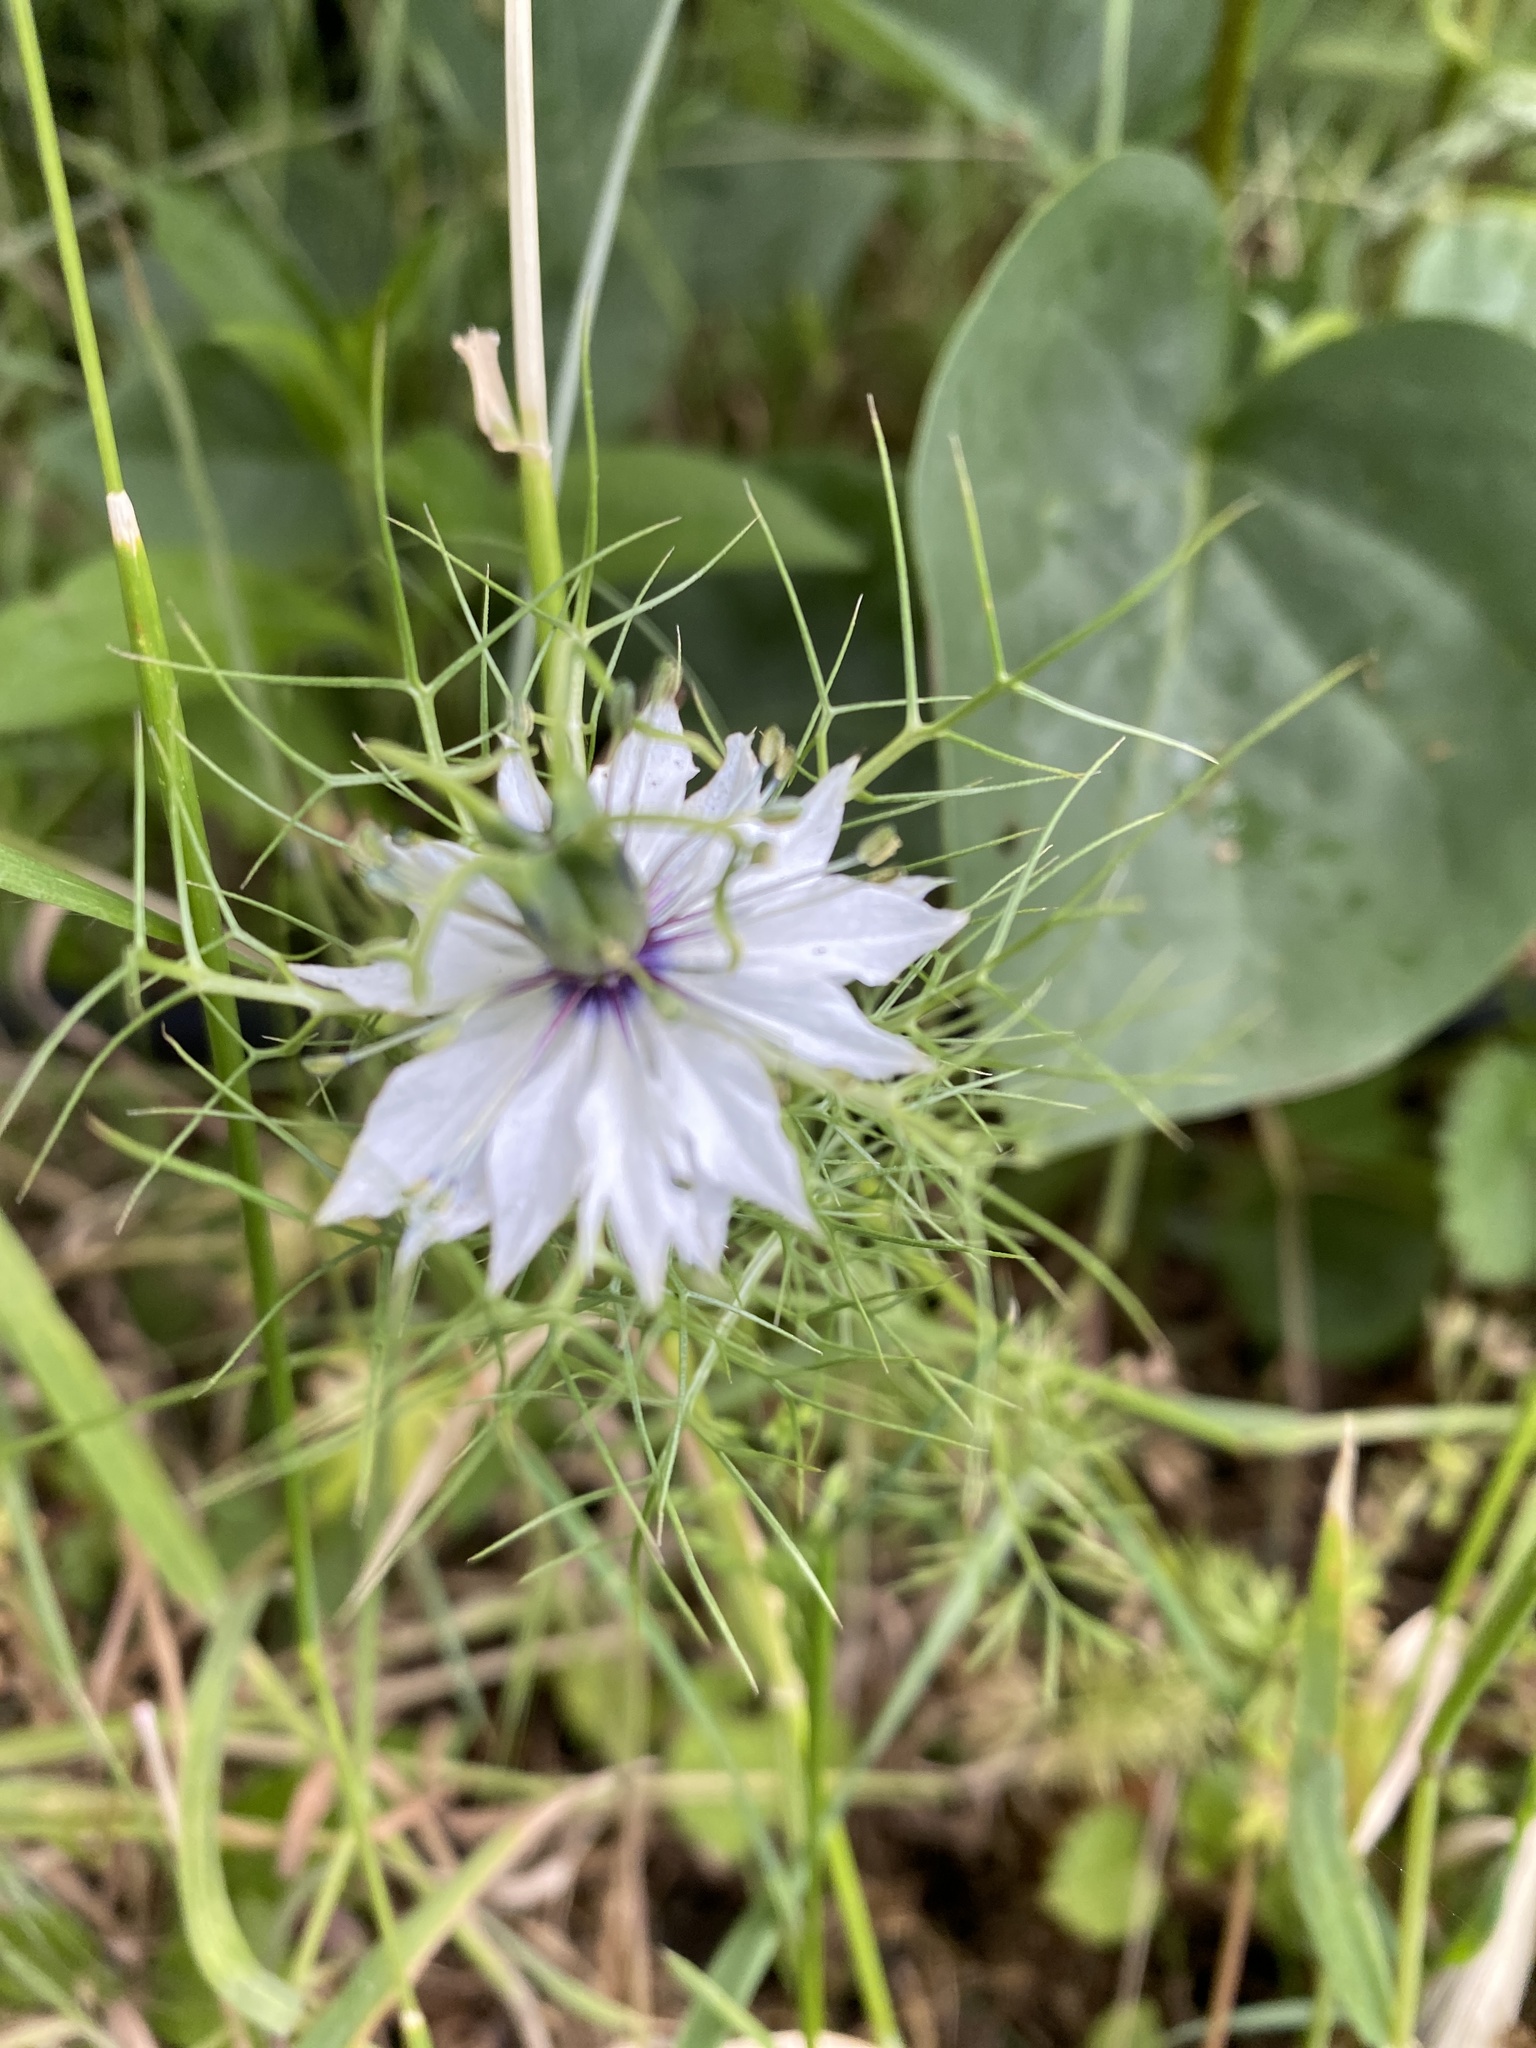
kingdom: Plantae
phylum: Tracheophyta
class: Magnoliopsida
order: Ranunculales
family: Ranunculaceae
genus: Nigella
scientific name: Nigella damascena
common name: Love-in-a-mist
